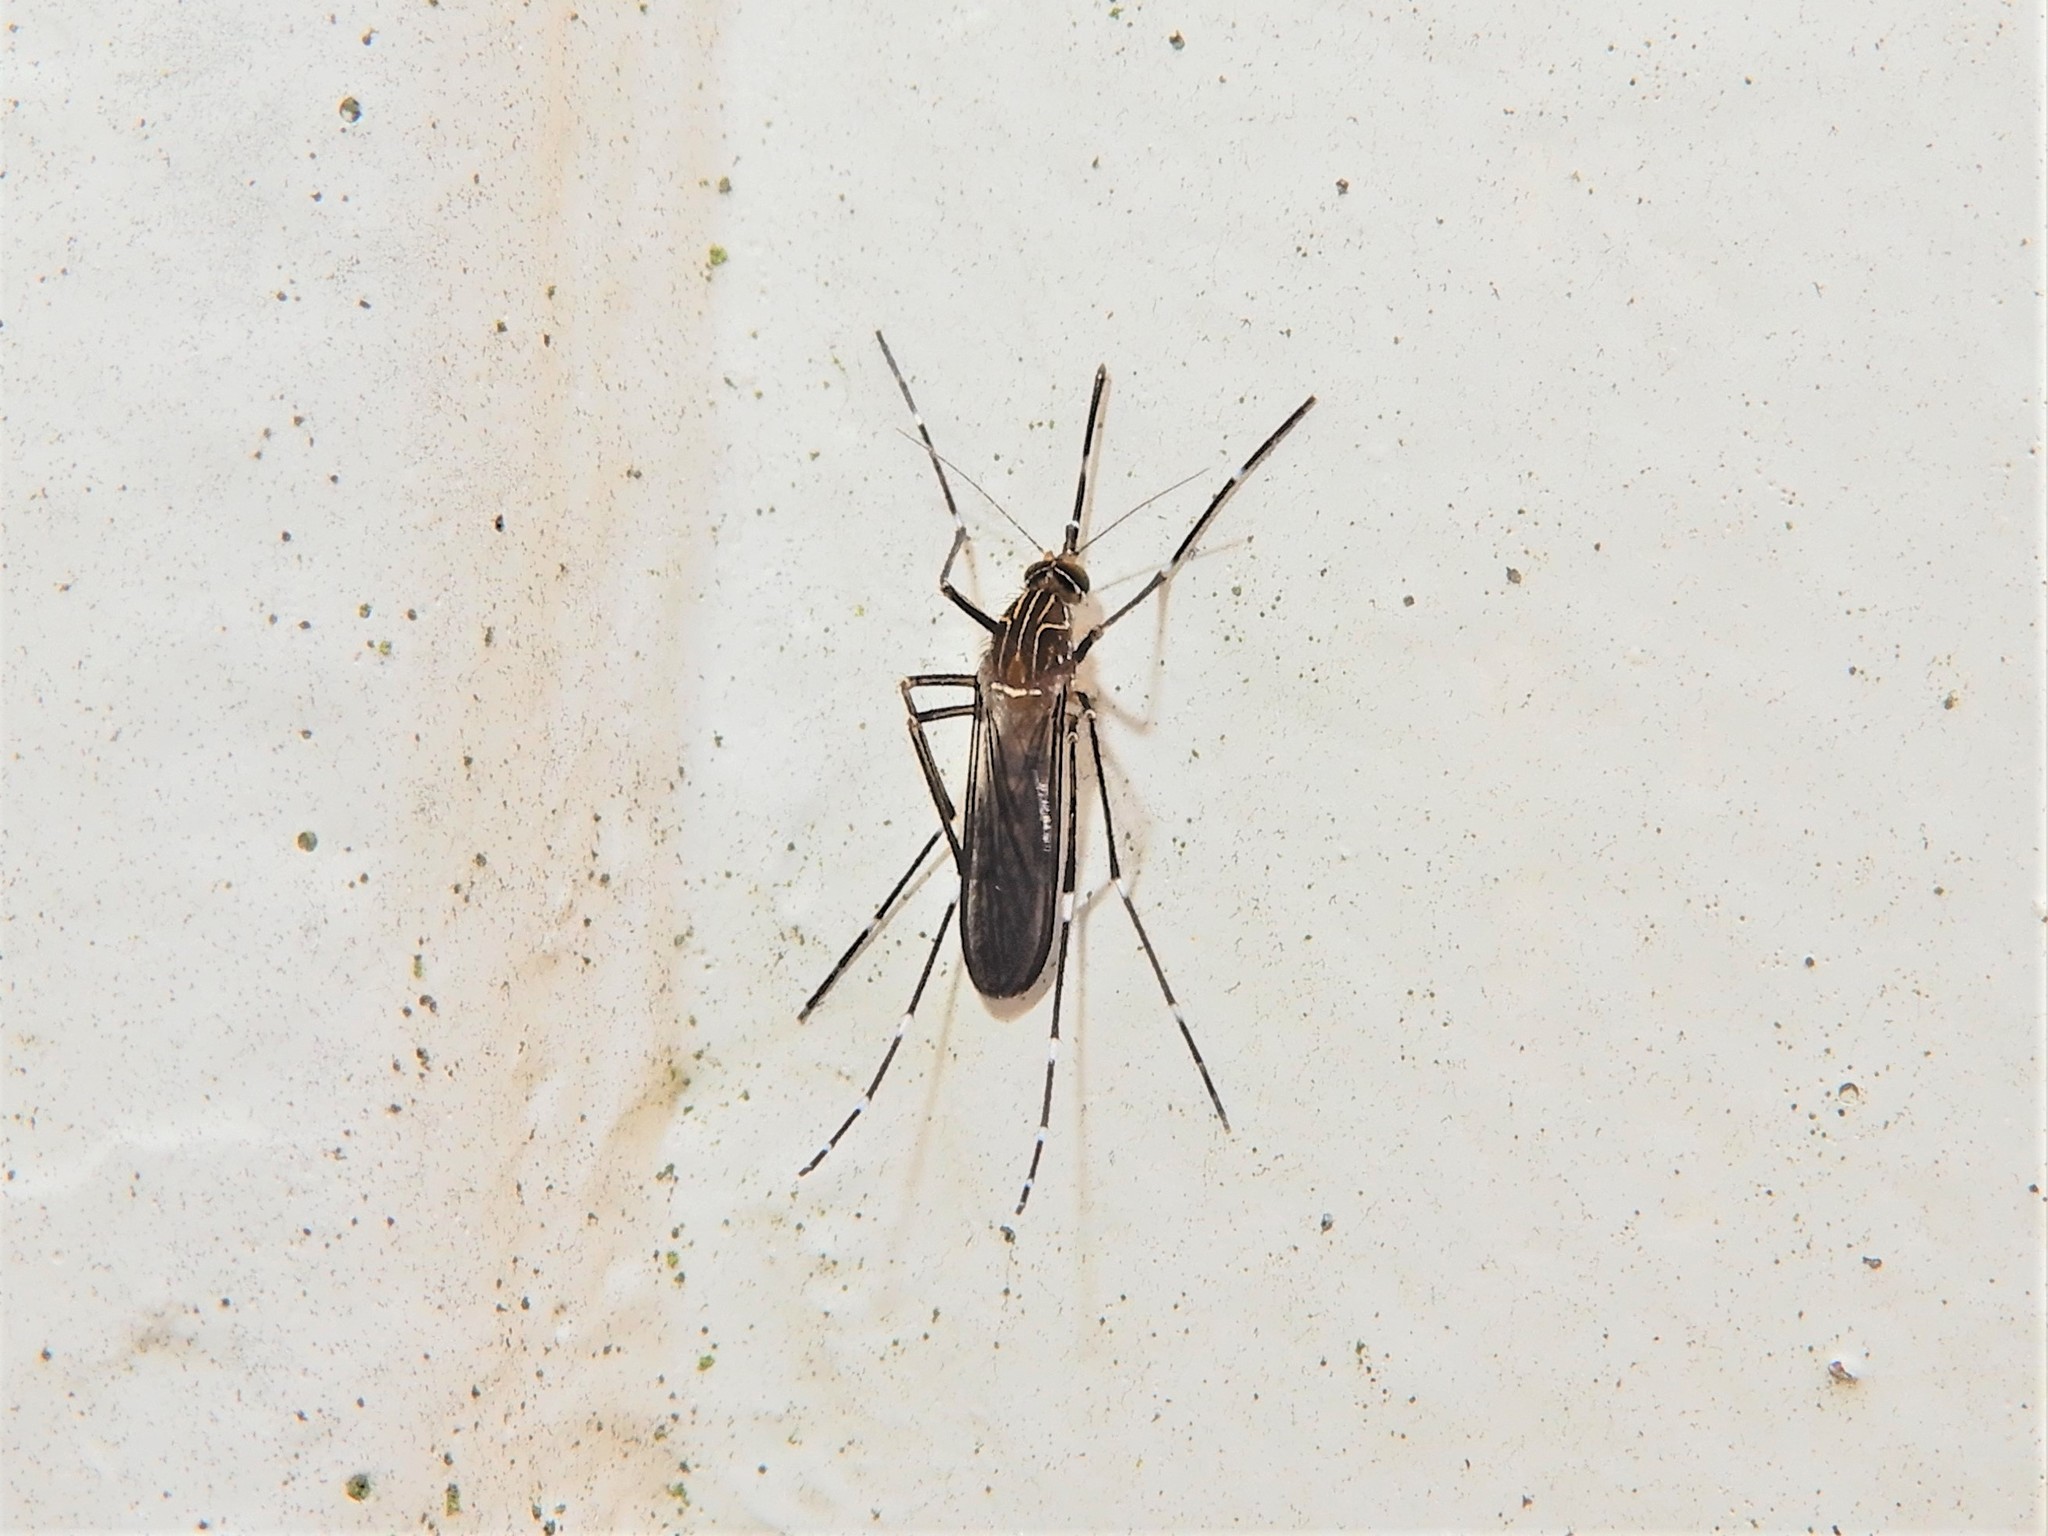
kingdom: Animalia
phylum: Arthropoda
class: Insecta
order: Diptera
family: Culicidae
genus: Aedes
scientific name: Aedes notoscriptus
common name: Australian backyard mosquito
